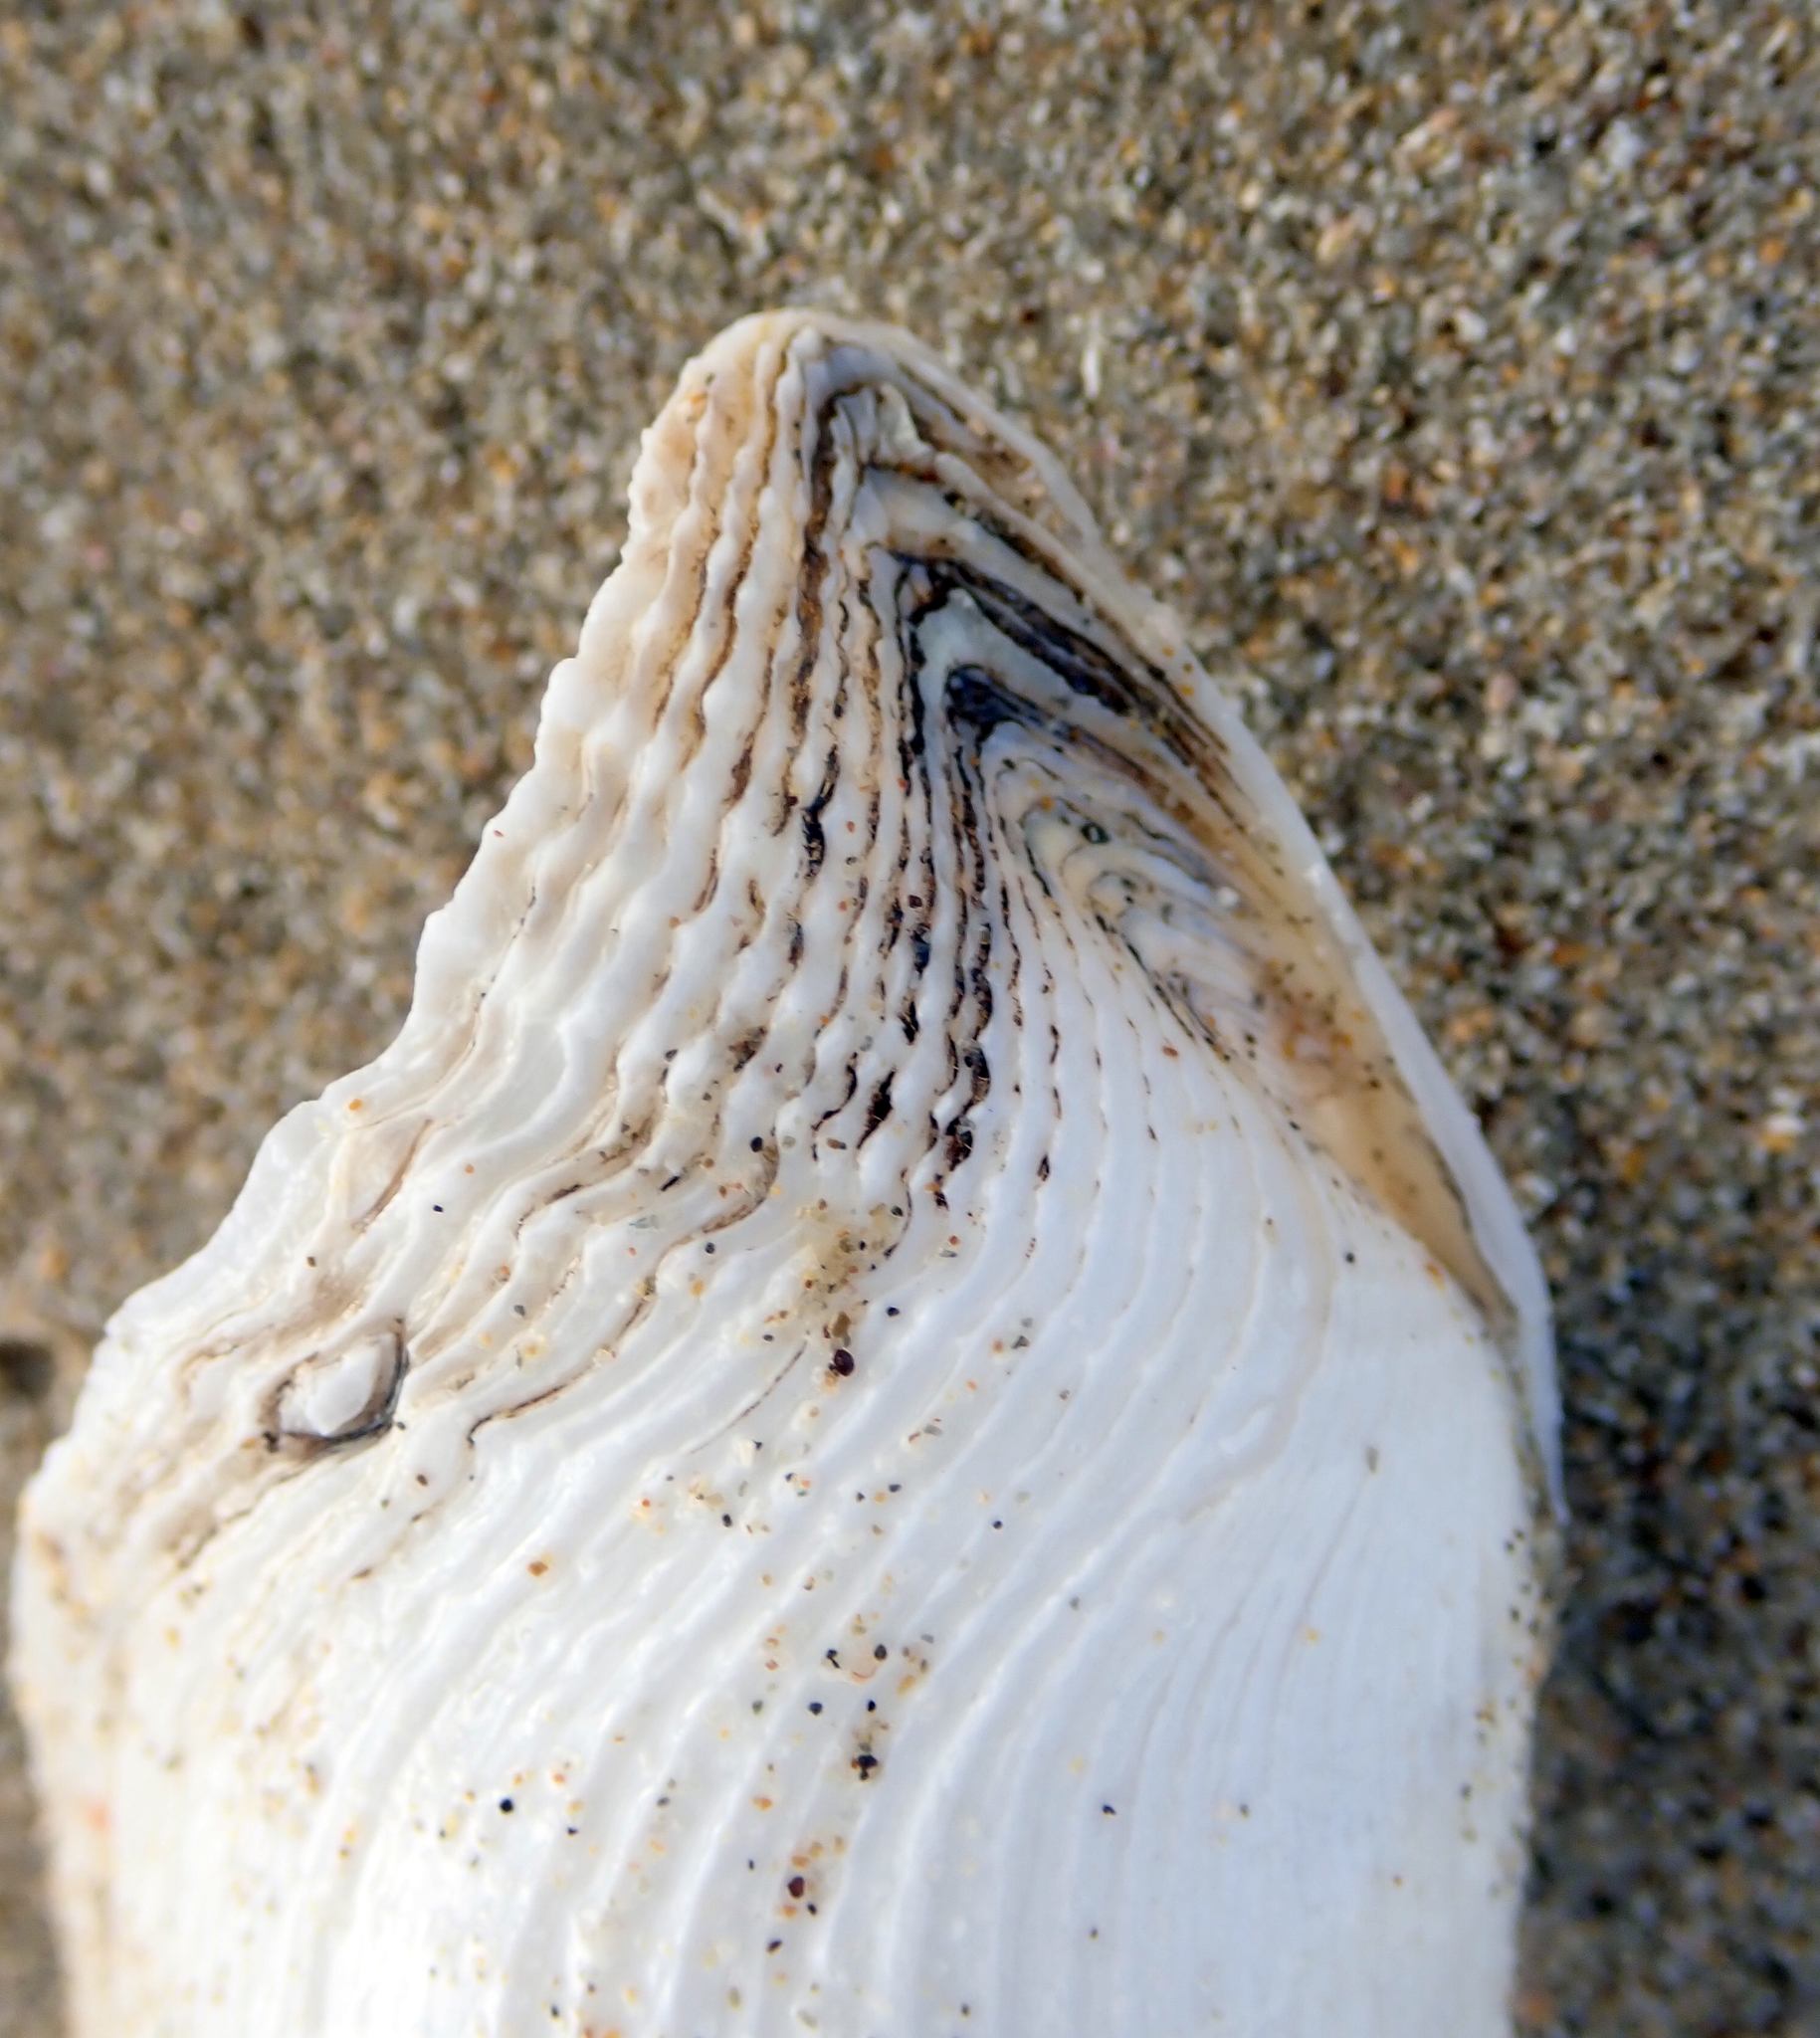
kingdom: Animalia
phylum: Mollusca
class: Bivalvia
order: Myida
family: Pholadidae
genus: Barnea
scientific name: Barnea similis
